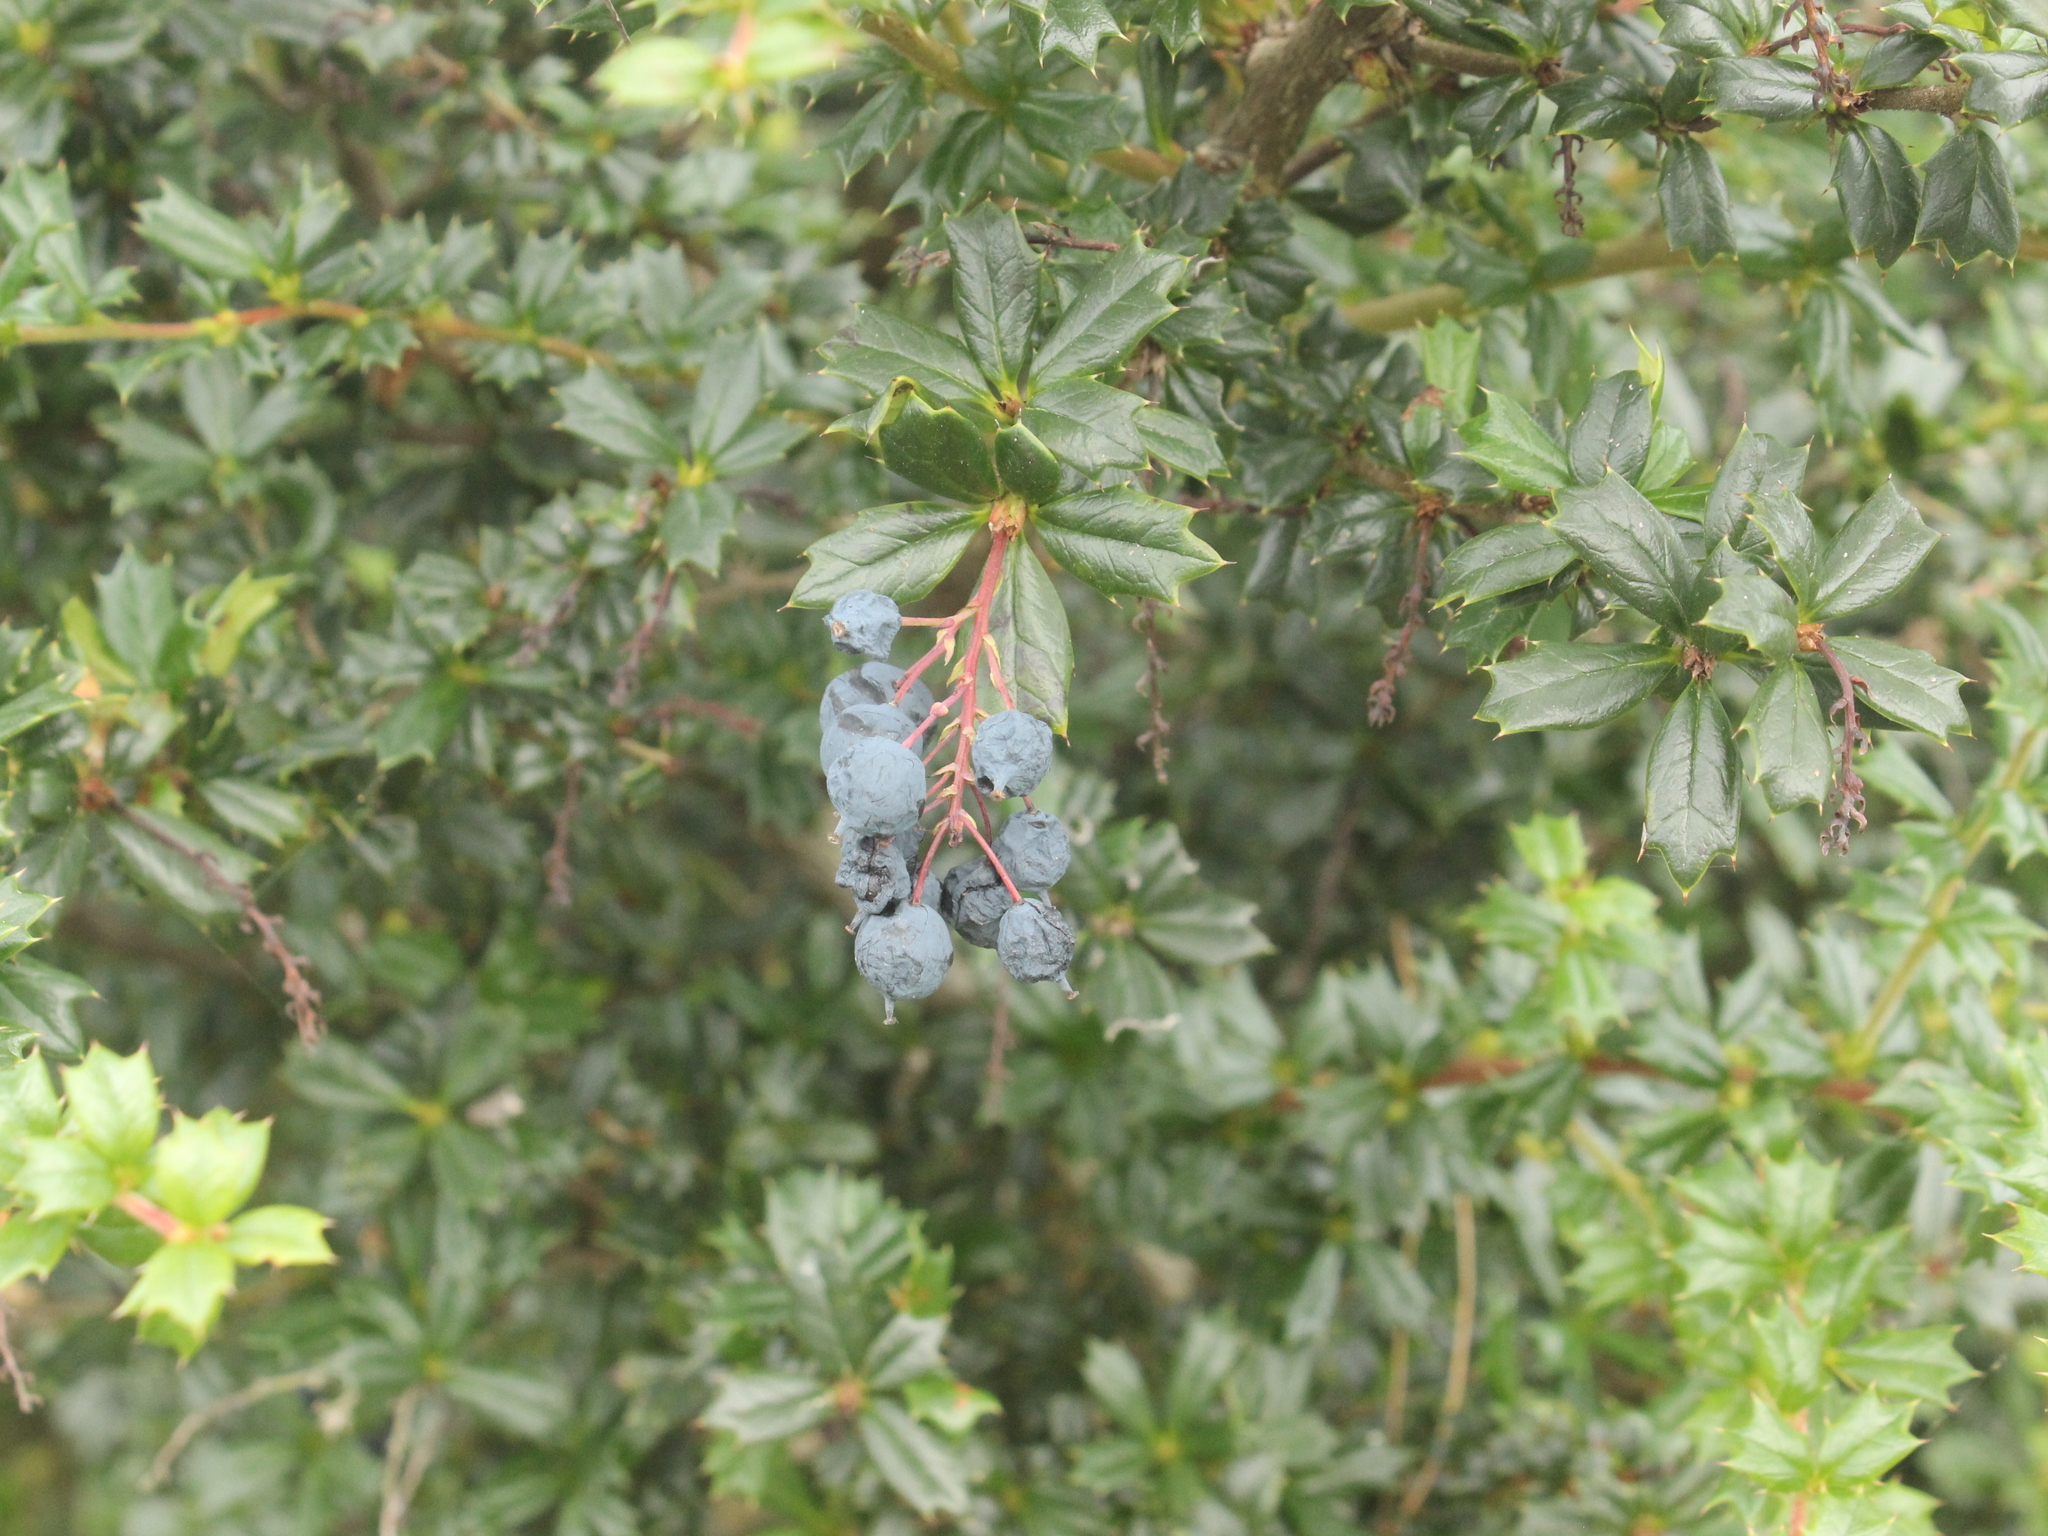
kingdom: Plantae
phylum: Tracheophyta
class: Magnoliopsida
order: Ranunculales
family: Berberidaceae
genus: Berberis
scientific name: Berberis darwinii
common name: Darwin's barberry
